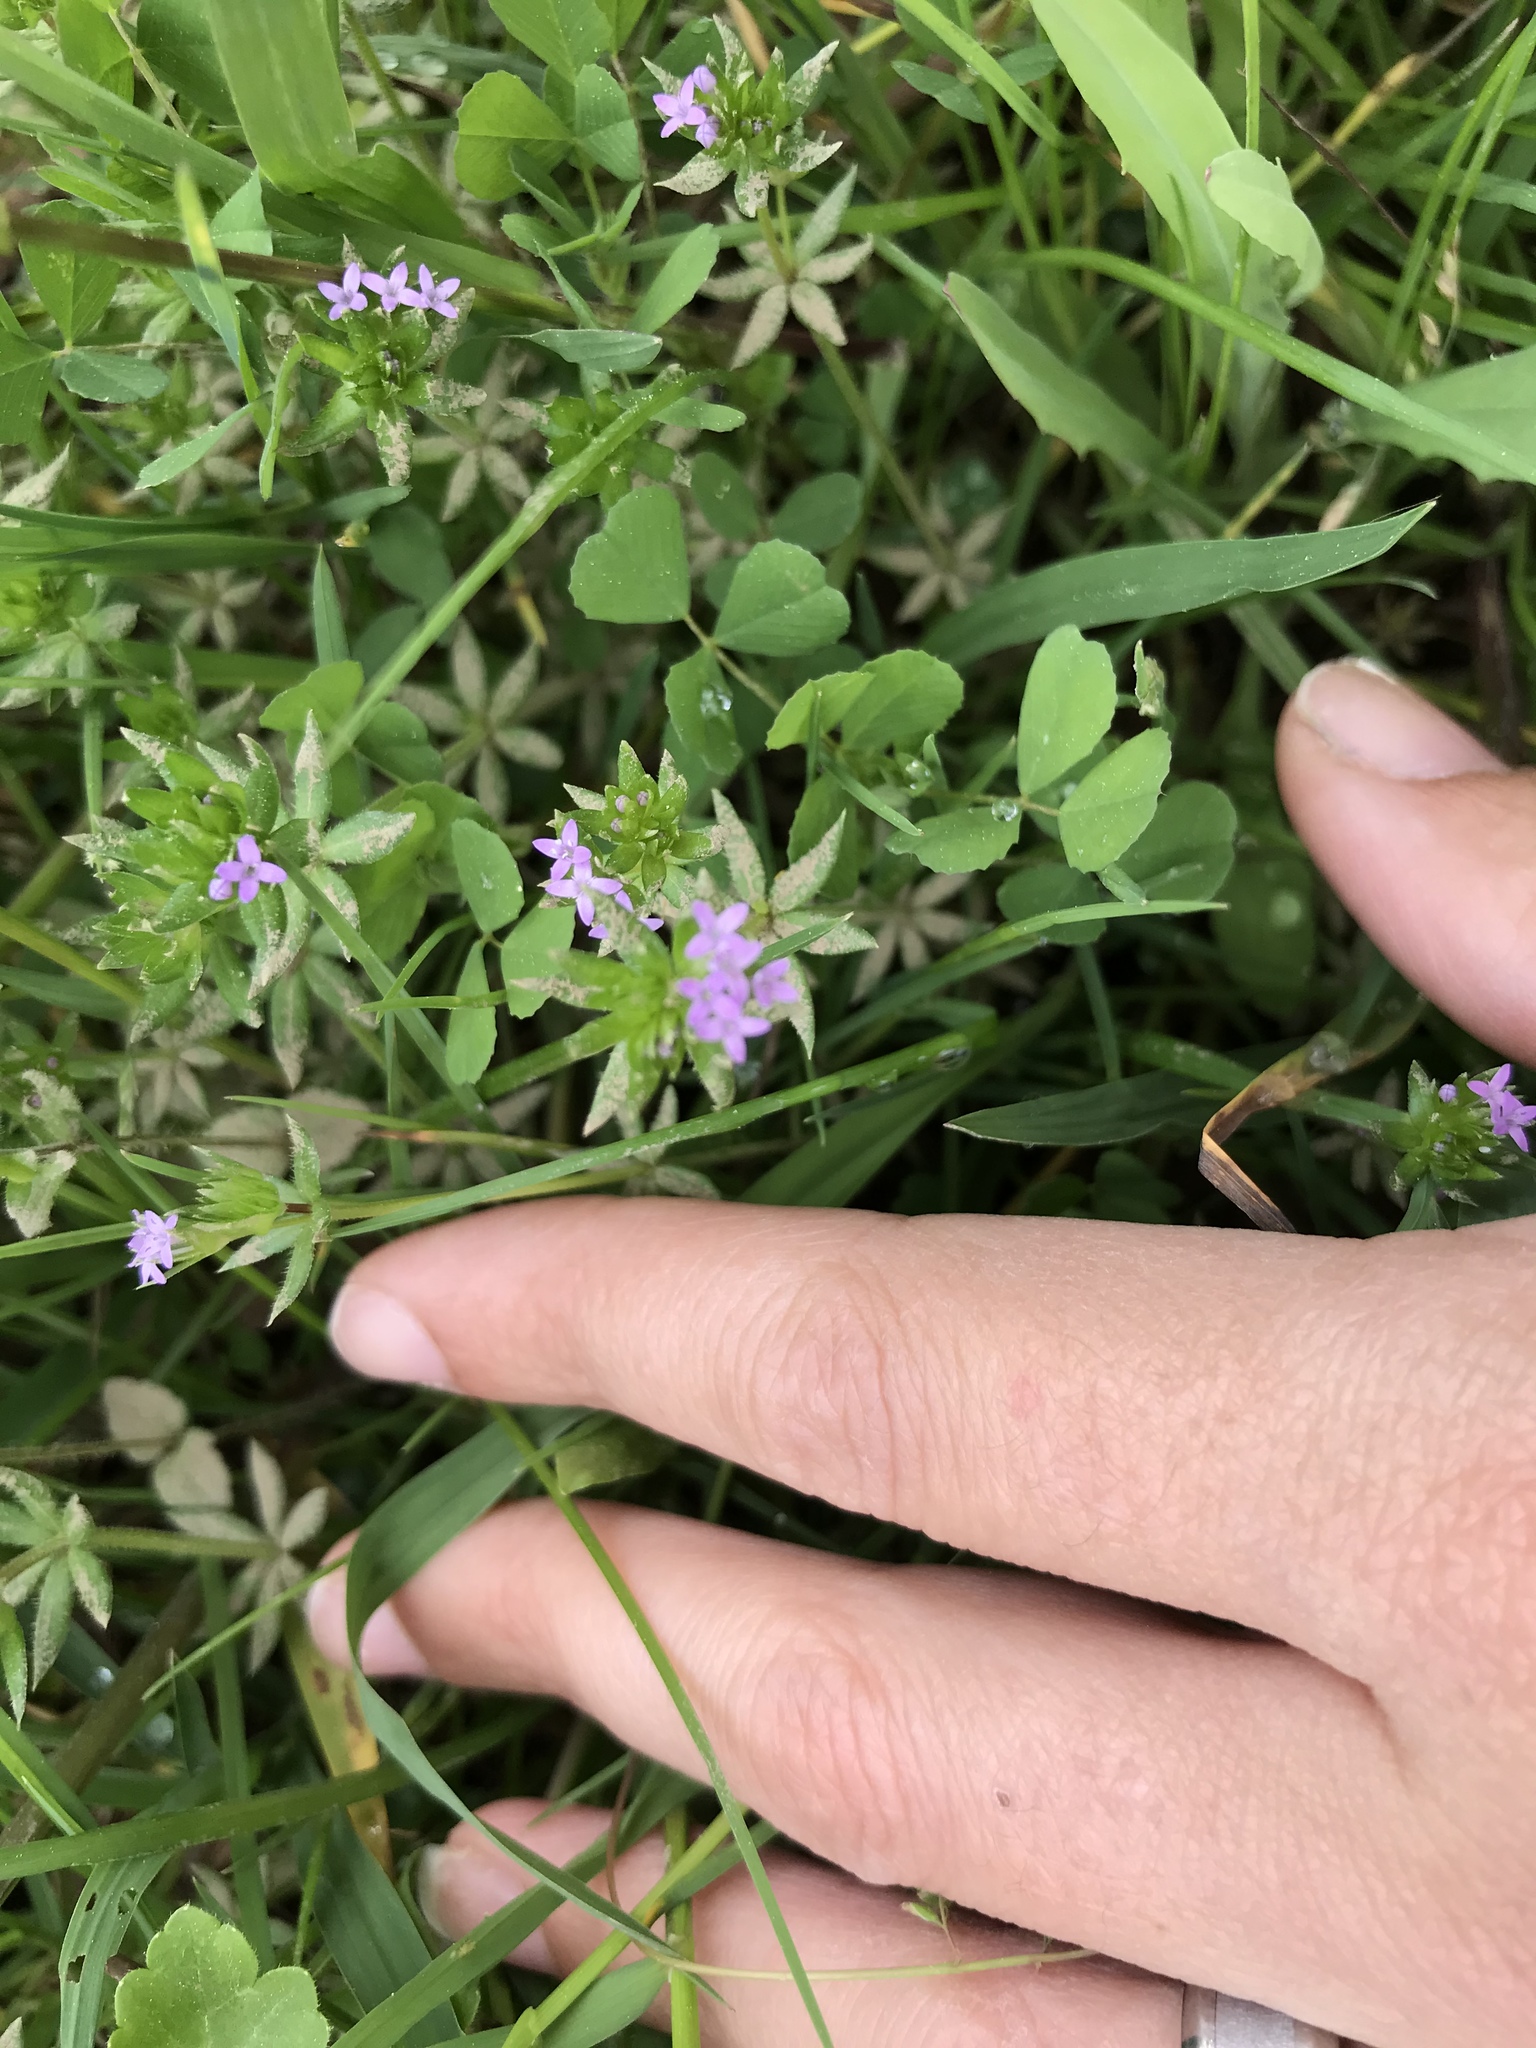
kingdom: Plantae
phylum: Tracheophyta
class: Magnoliopsida
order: Gentianales
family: Rubiaceae
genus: Sherardia
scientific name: Sherardia arvensis
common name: Field madder
